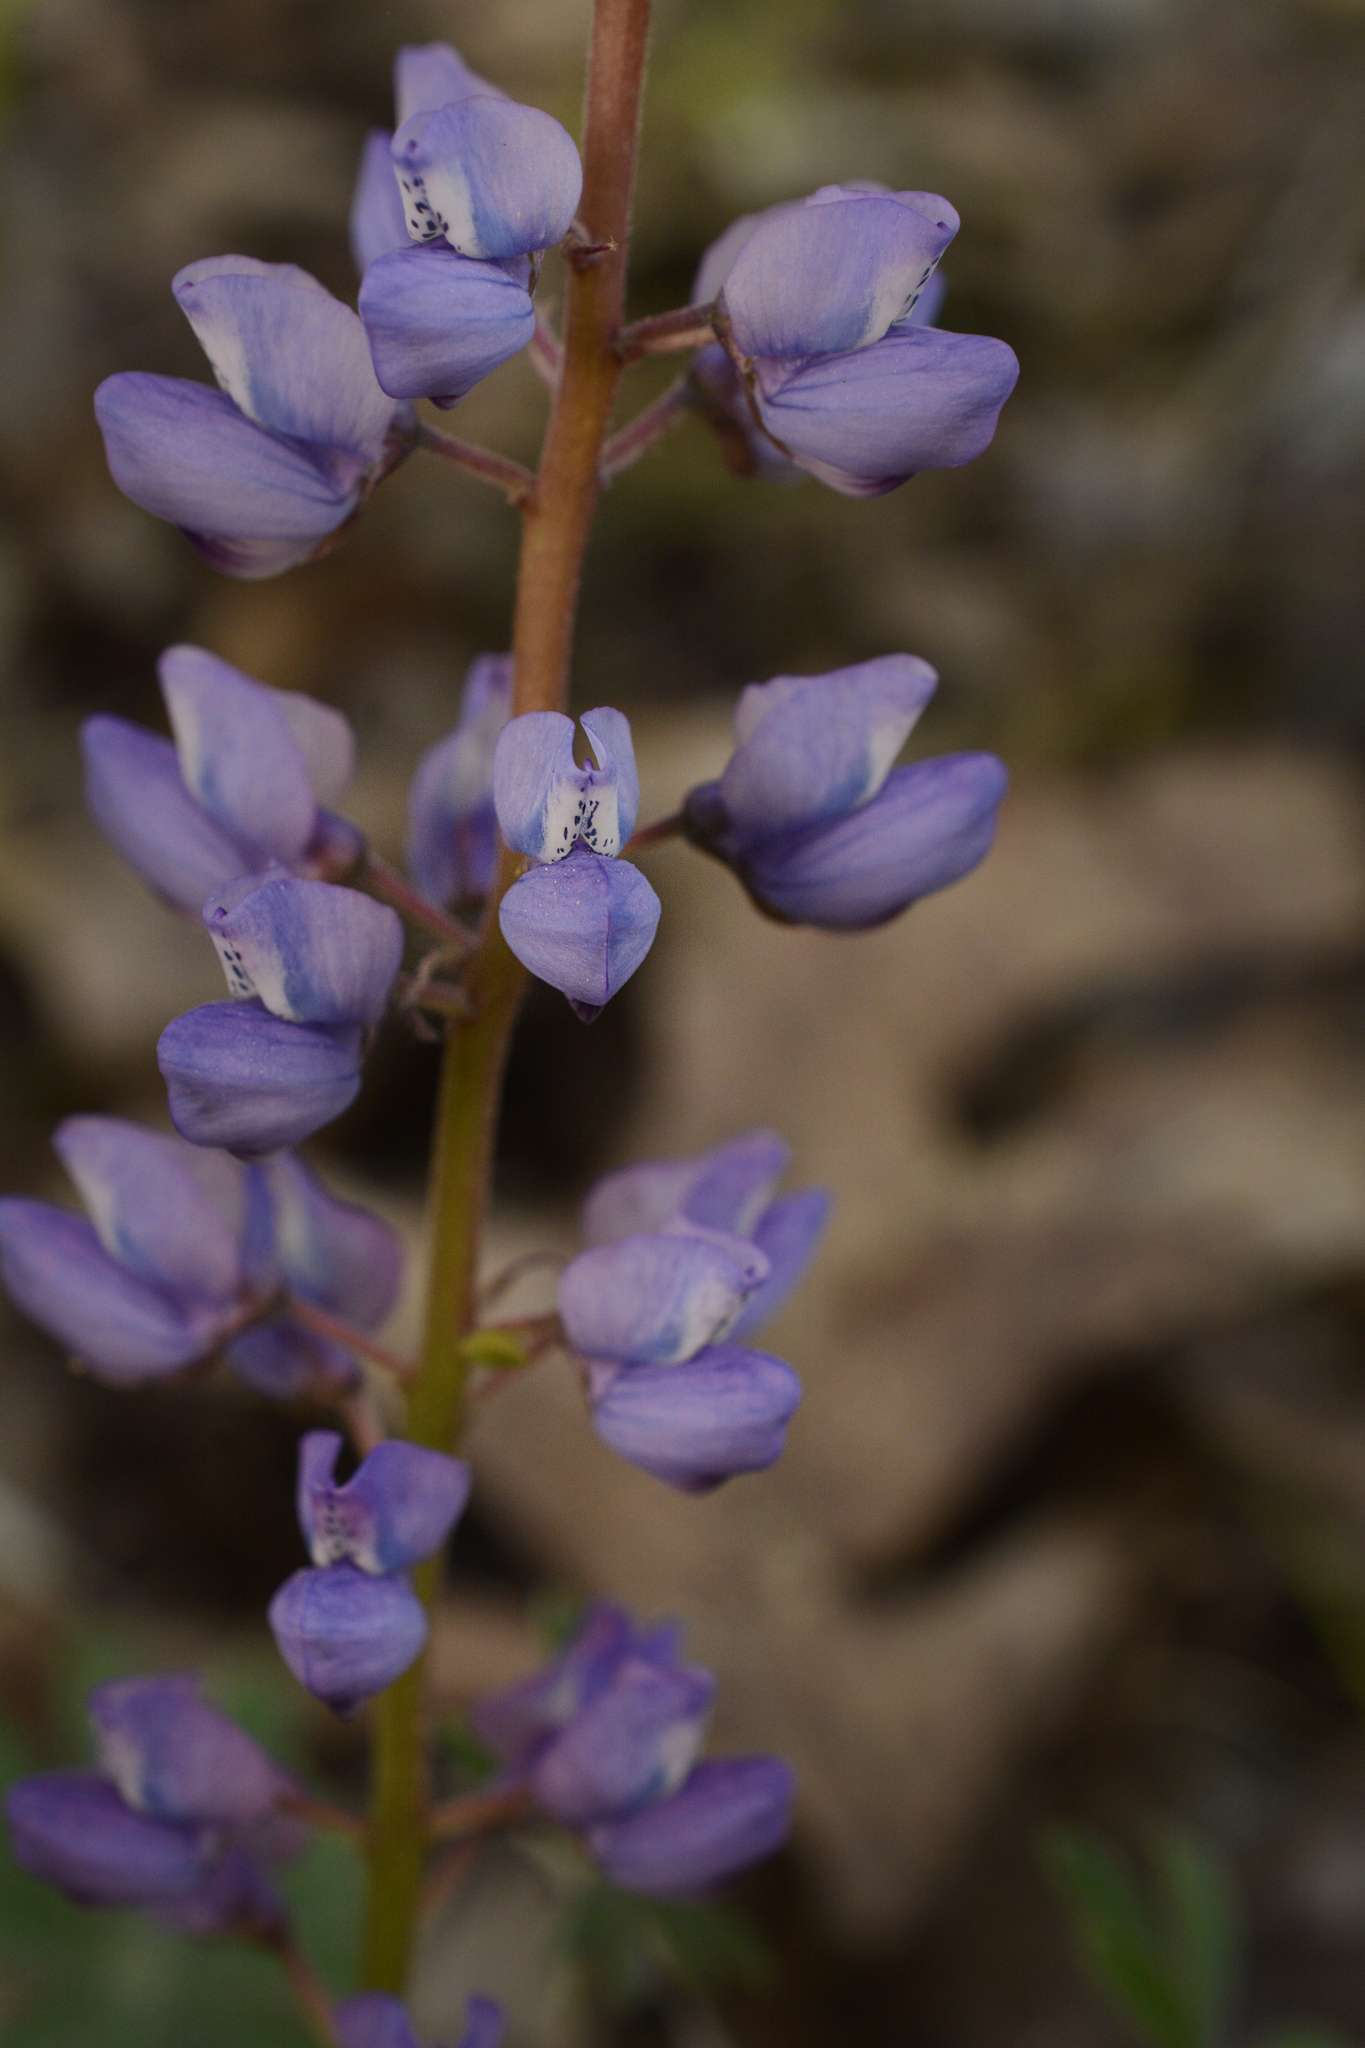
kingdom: Plantae
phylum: Tracheophyta
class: Magnoliopsida
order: Fabales
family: Fabaceae
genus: Lupinus
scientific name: Lupinus perennis
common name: Sundial lupine
